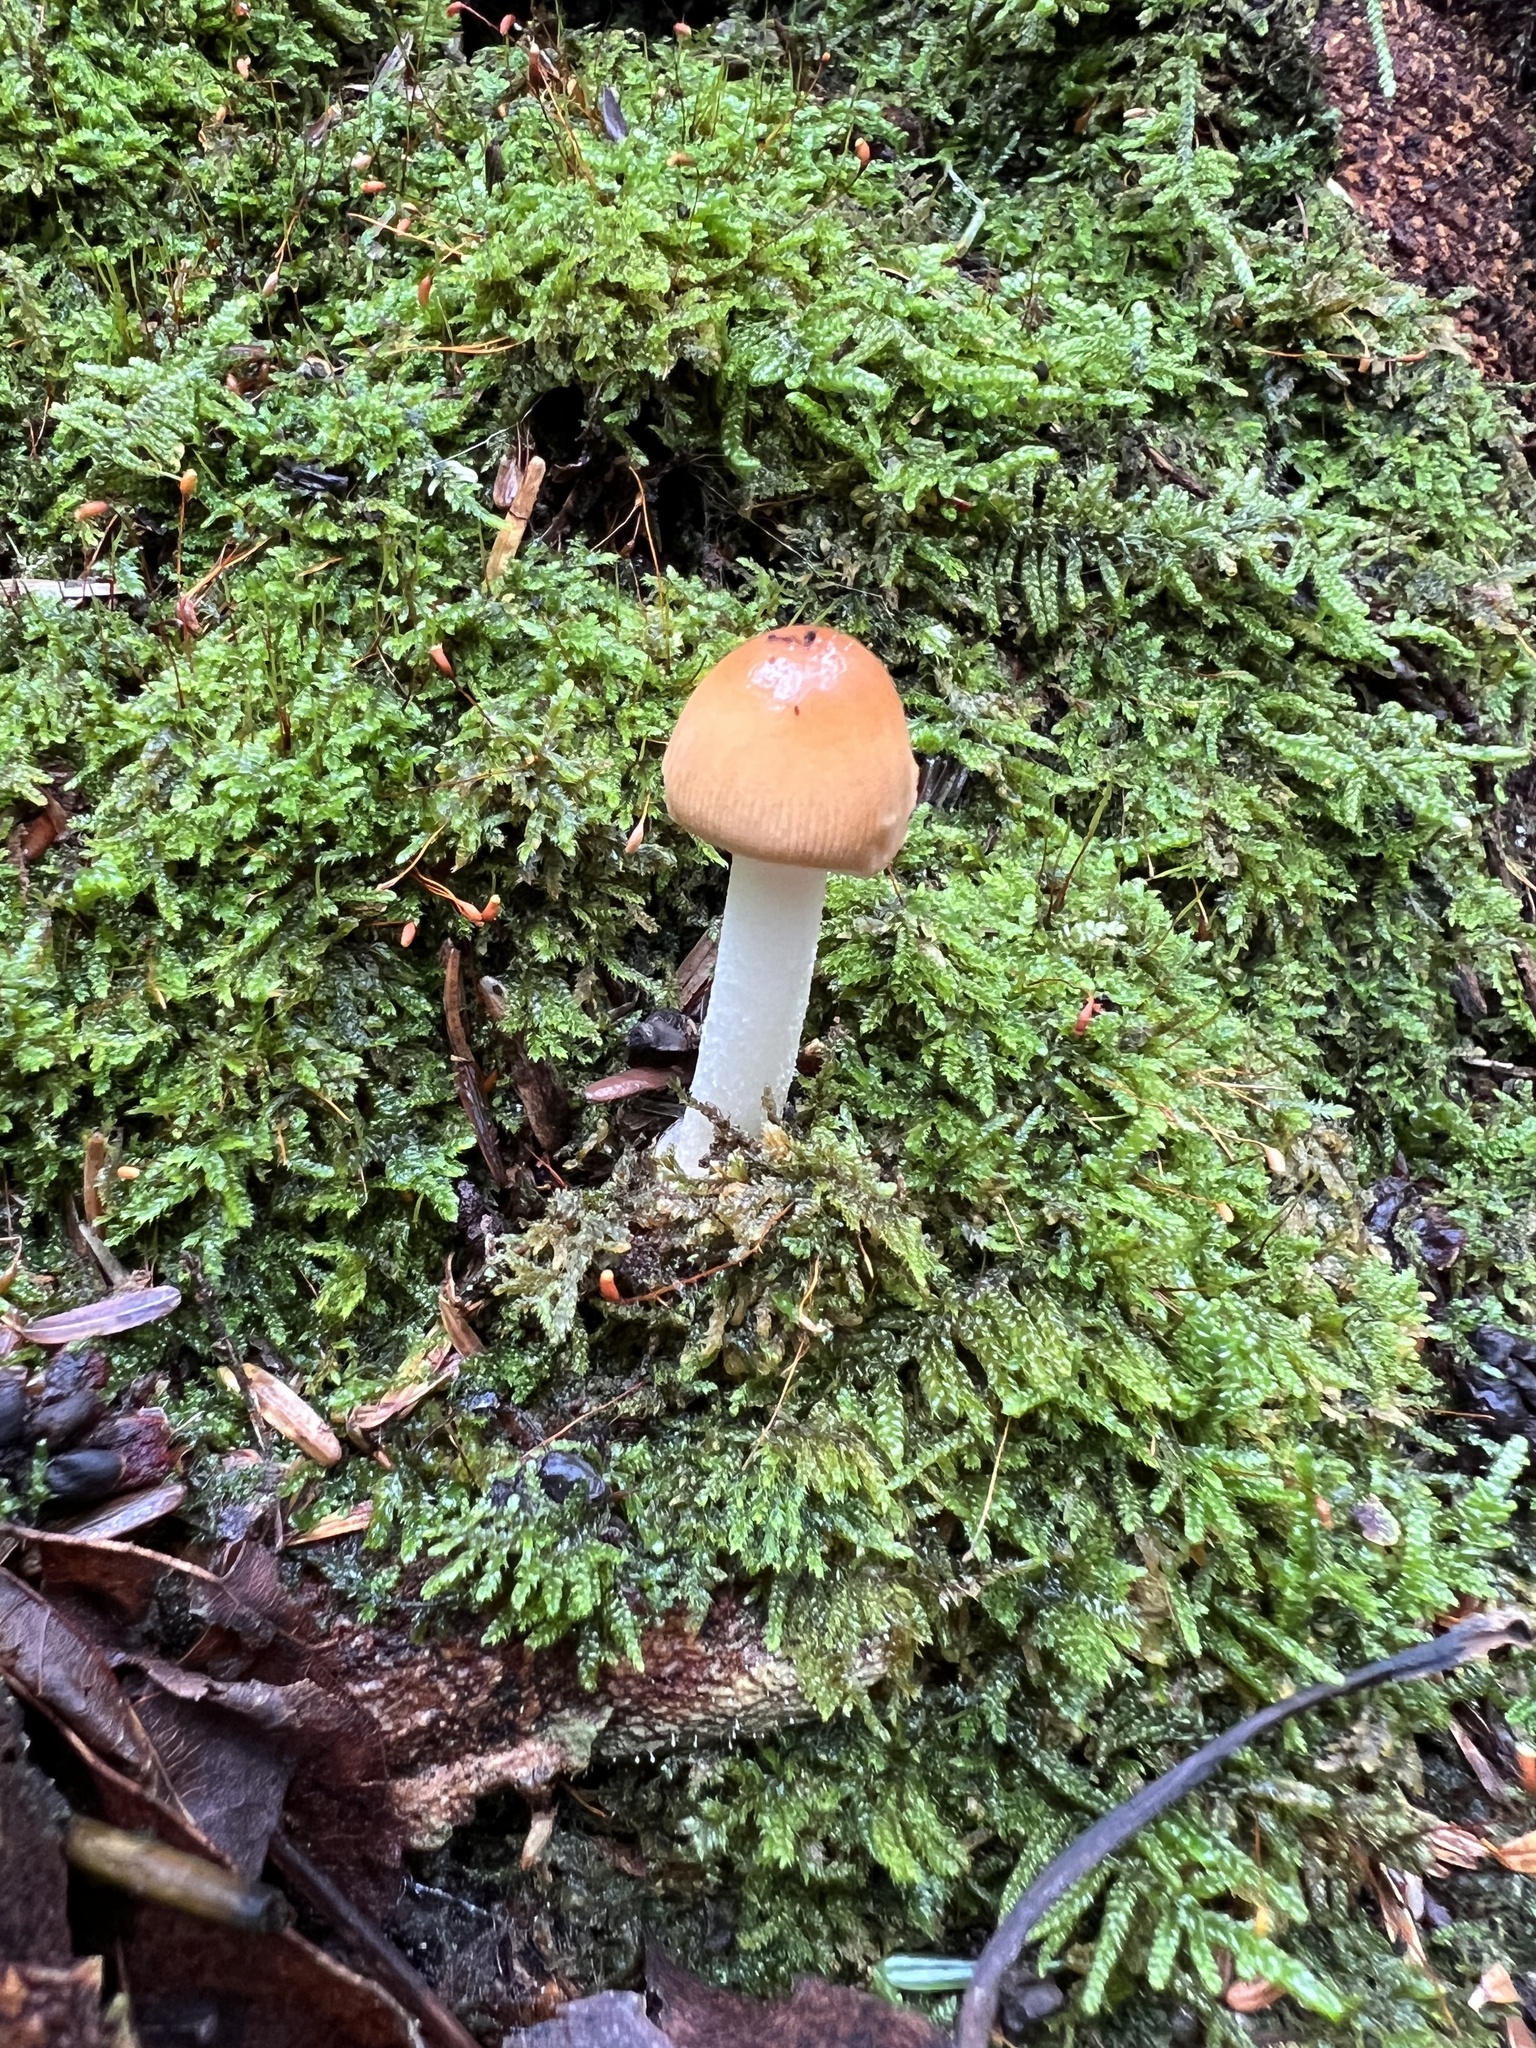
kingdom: Fungi
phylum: Basidiomycota
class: Agaricomycetes
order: Agaricales
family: Amanitaceae
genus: Amanita
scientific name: Amanita fulva
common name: Tawny grisette
